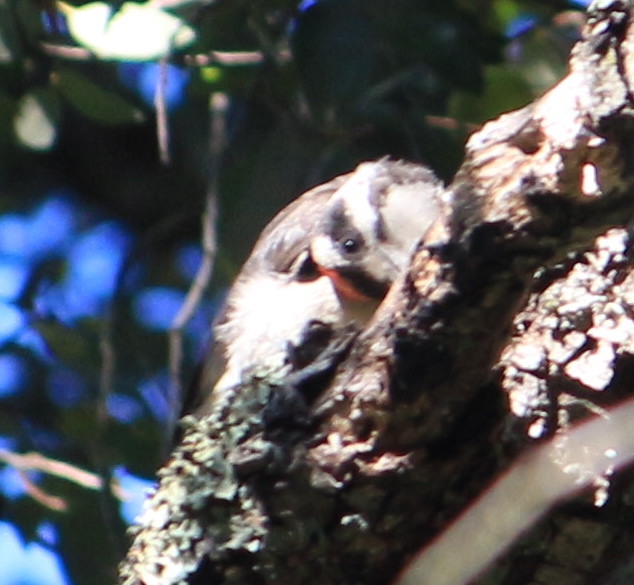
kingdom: Animalia
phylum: Chordata
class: Aves
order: Piciformes
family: Picidae
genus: Leuconotopicus
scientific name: Leuconotopicus villosus
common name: Hairy woodpecker
